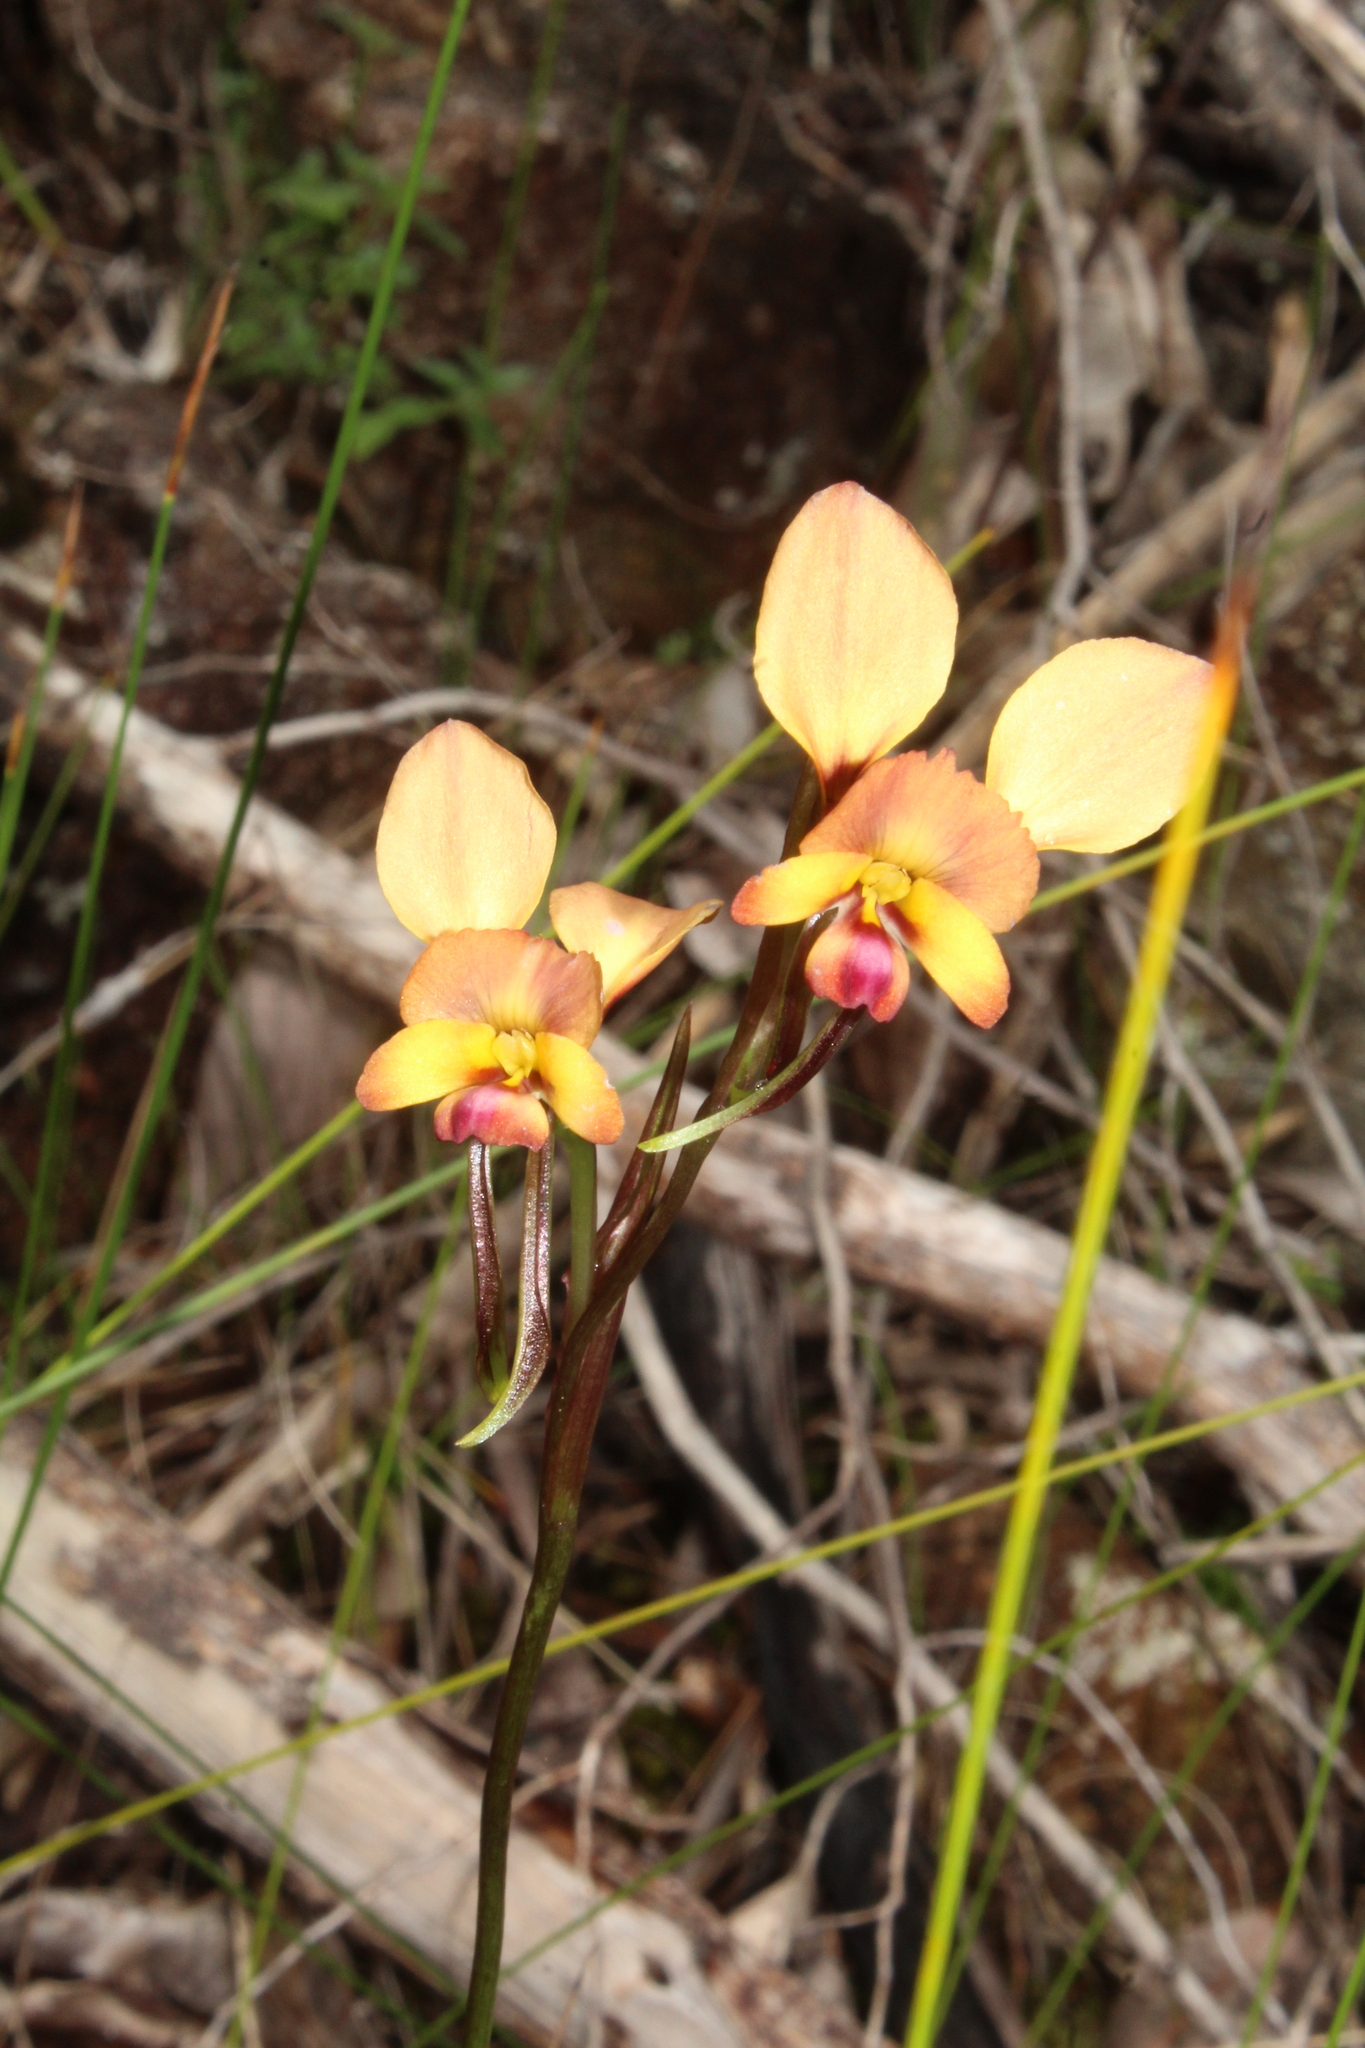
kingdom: Plantae
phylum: Tracheophyta
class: Liliopsida
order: Asparagales
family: Orchidaceae
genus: Diuris
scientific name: Diuris jonesii
